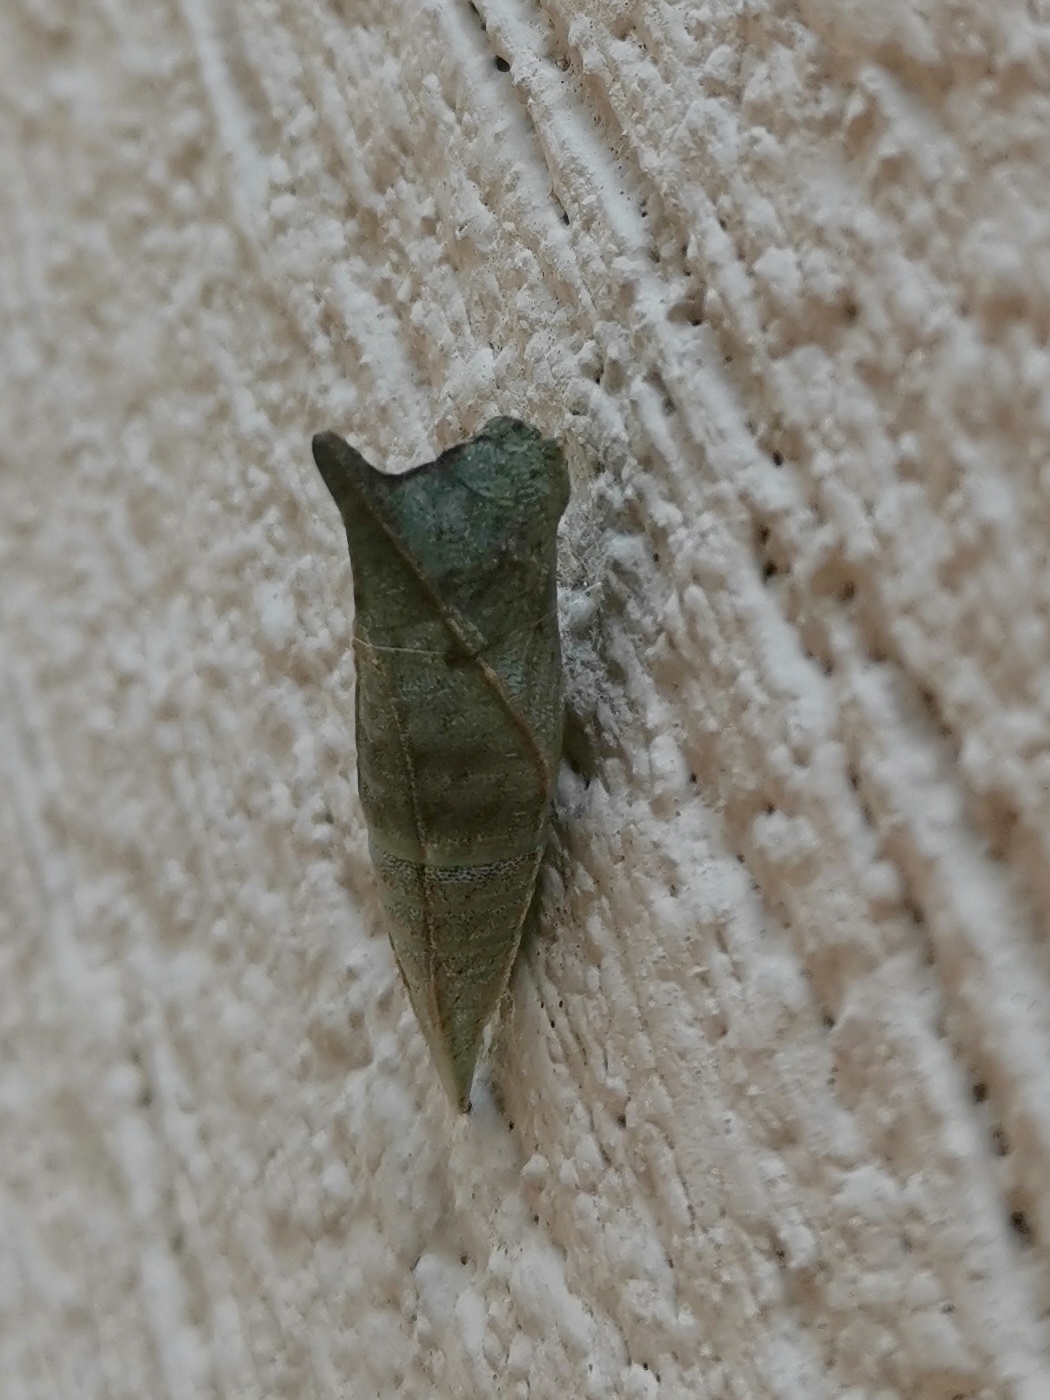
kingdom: Animalia
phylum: Arthropoda
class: Insecta
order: Lepidoptera
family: Papilionidae
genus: Graphium
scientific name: Graphium doson
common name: Common jay
